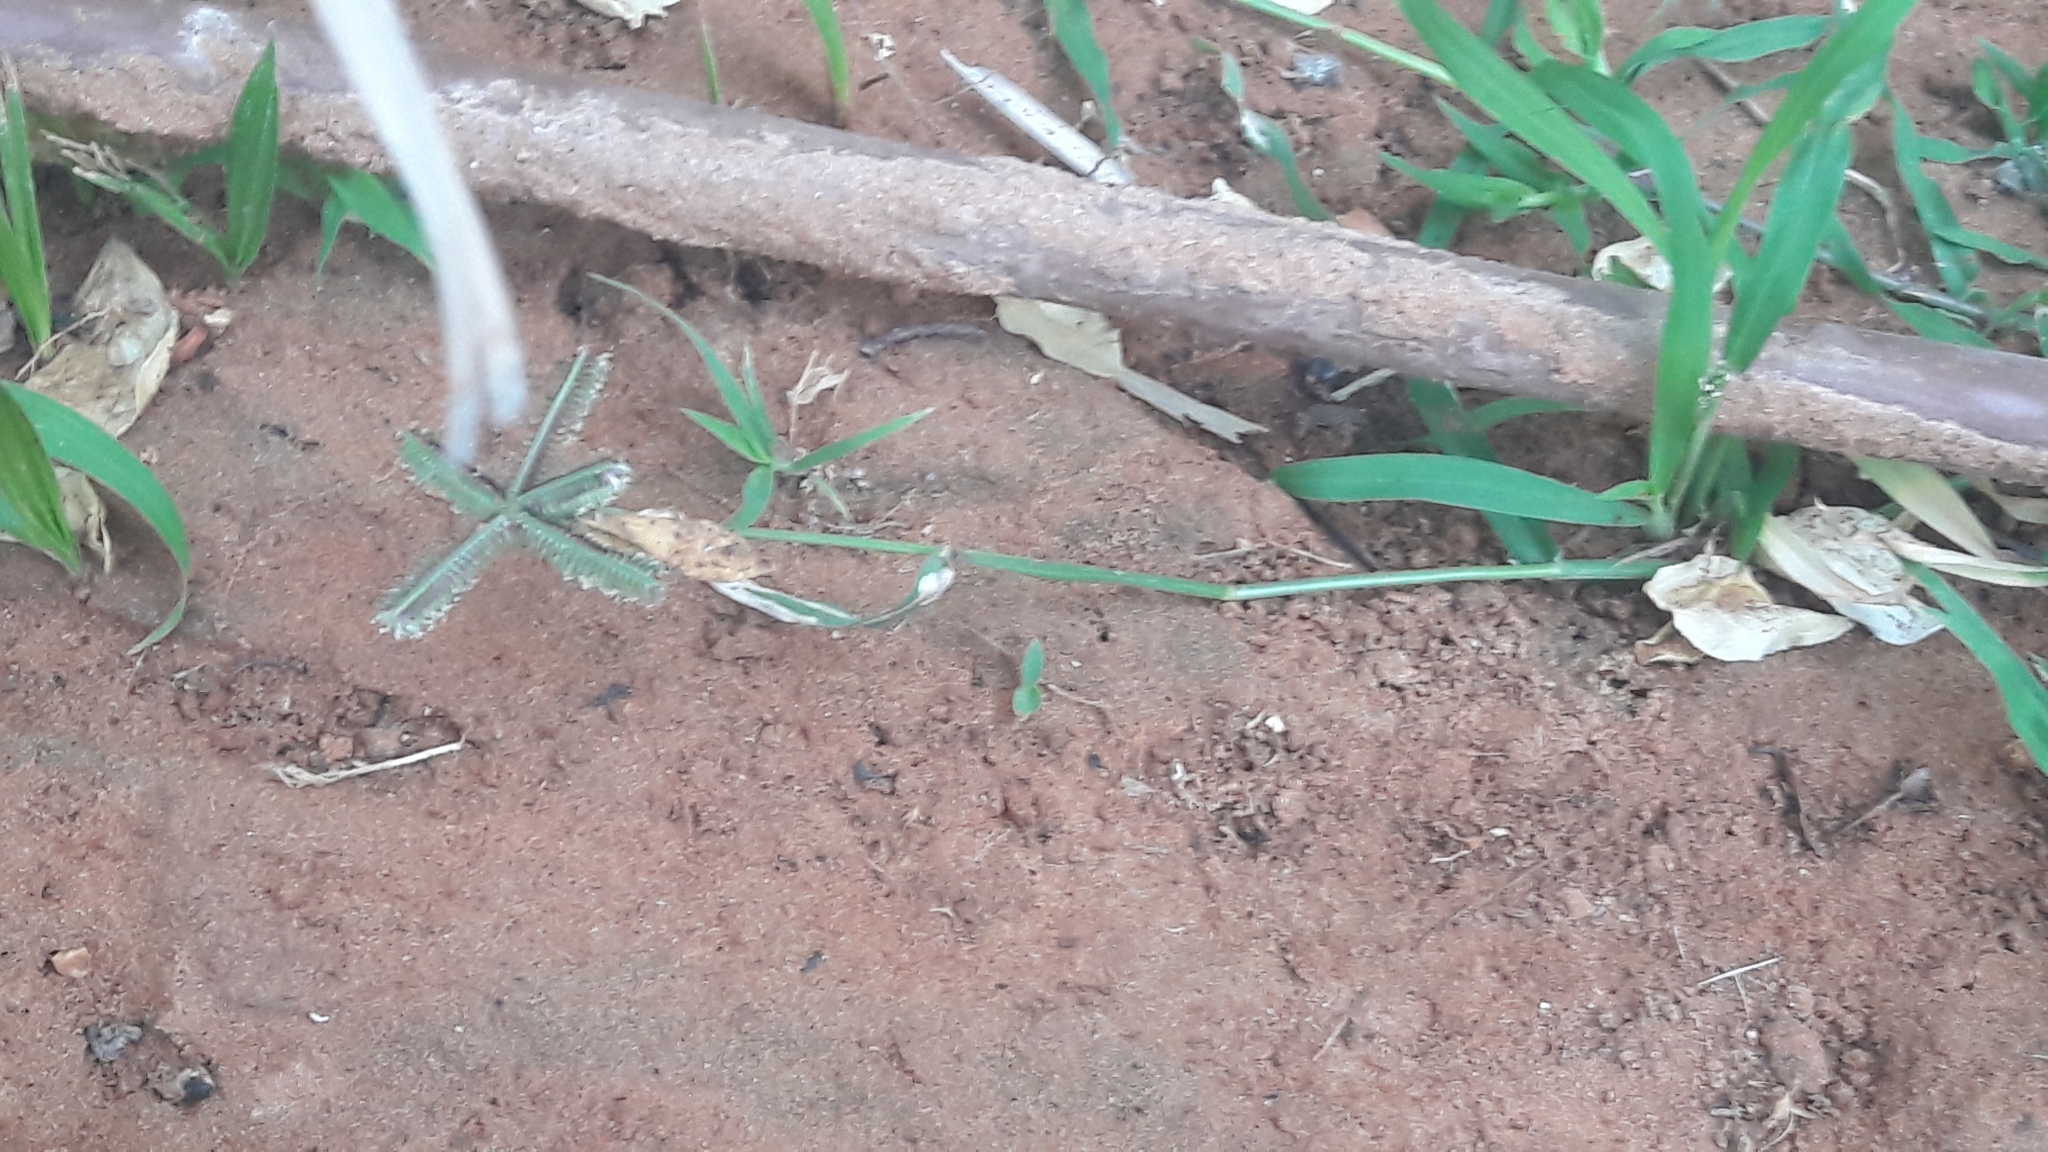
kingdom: Plantae
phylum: Tracheophyta
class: Liliopsida
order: Poales
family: Poaceae
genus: Dactyloctenium
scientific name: Dactyloctenium aegyptium
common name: Egyptian grass
